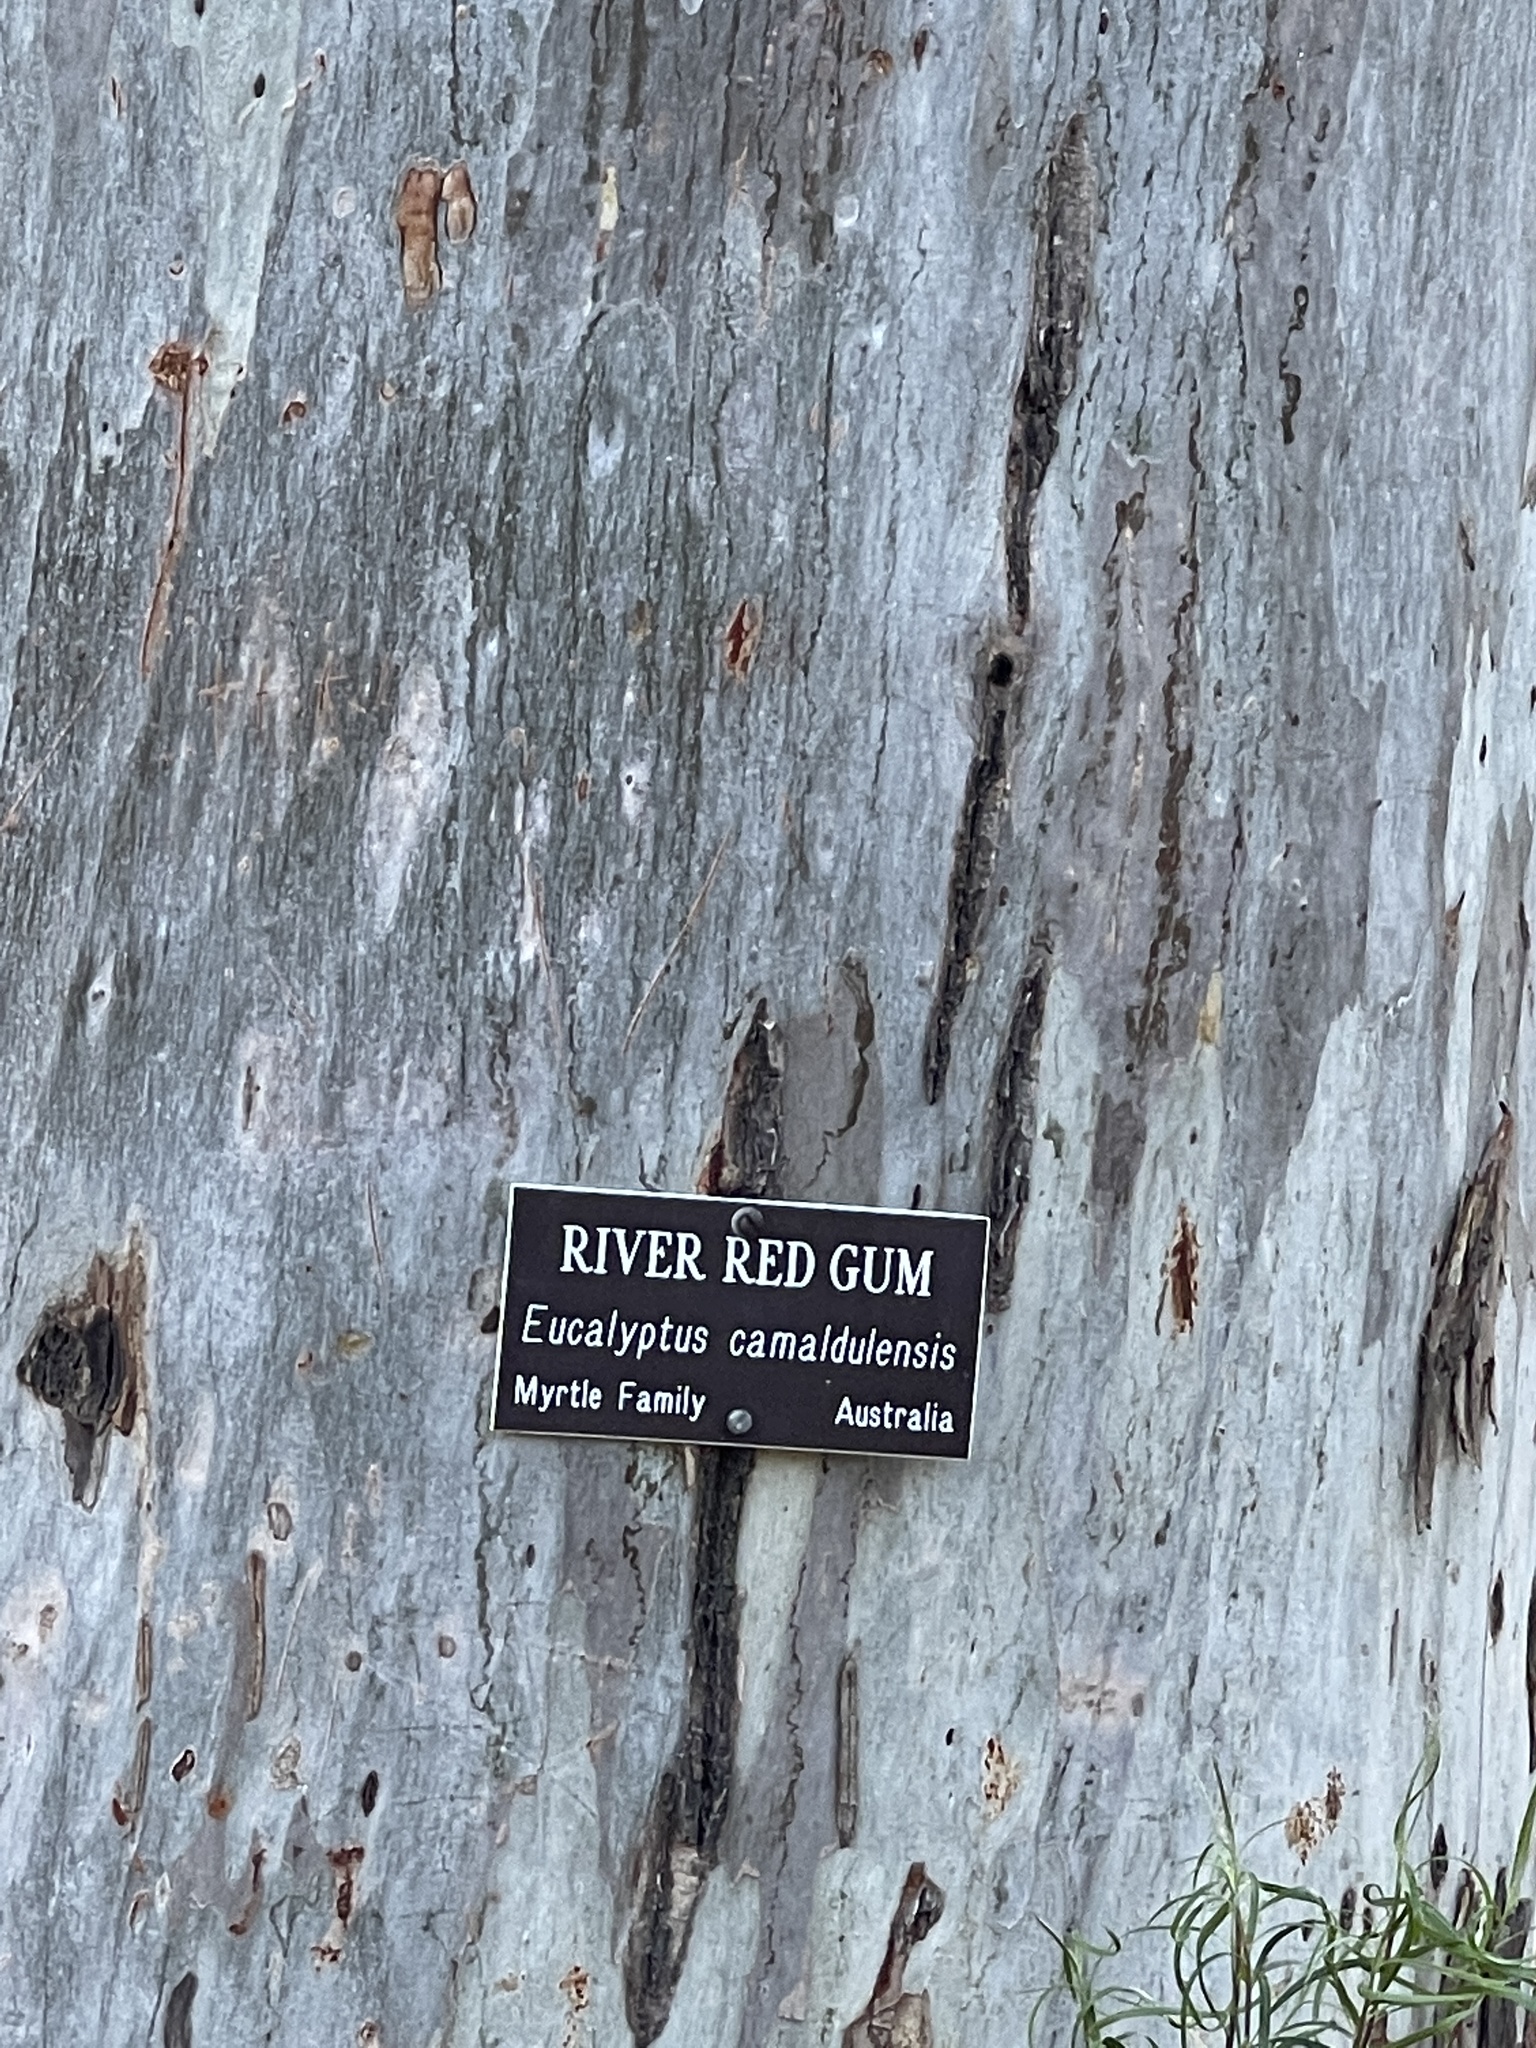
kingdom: Plantae
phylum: Tracheophyta
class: Magnoliopsida
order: Myrtales
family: Myrtaceae
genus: Eucalyptus
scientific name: Eucalyptus camaldulensis
